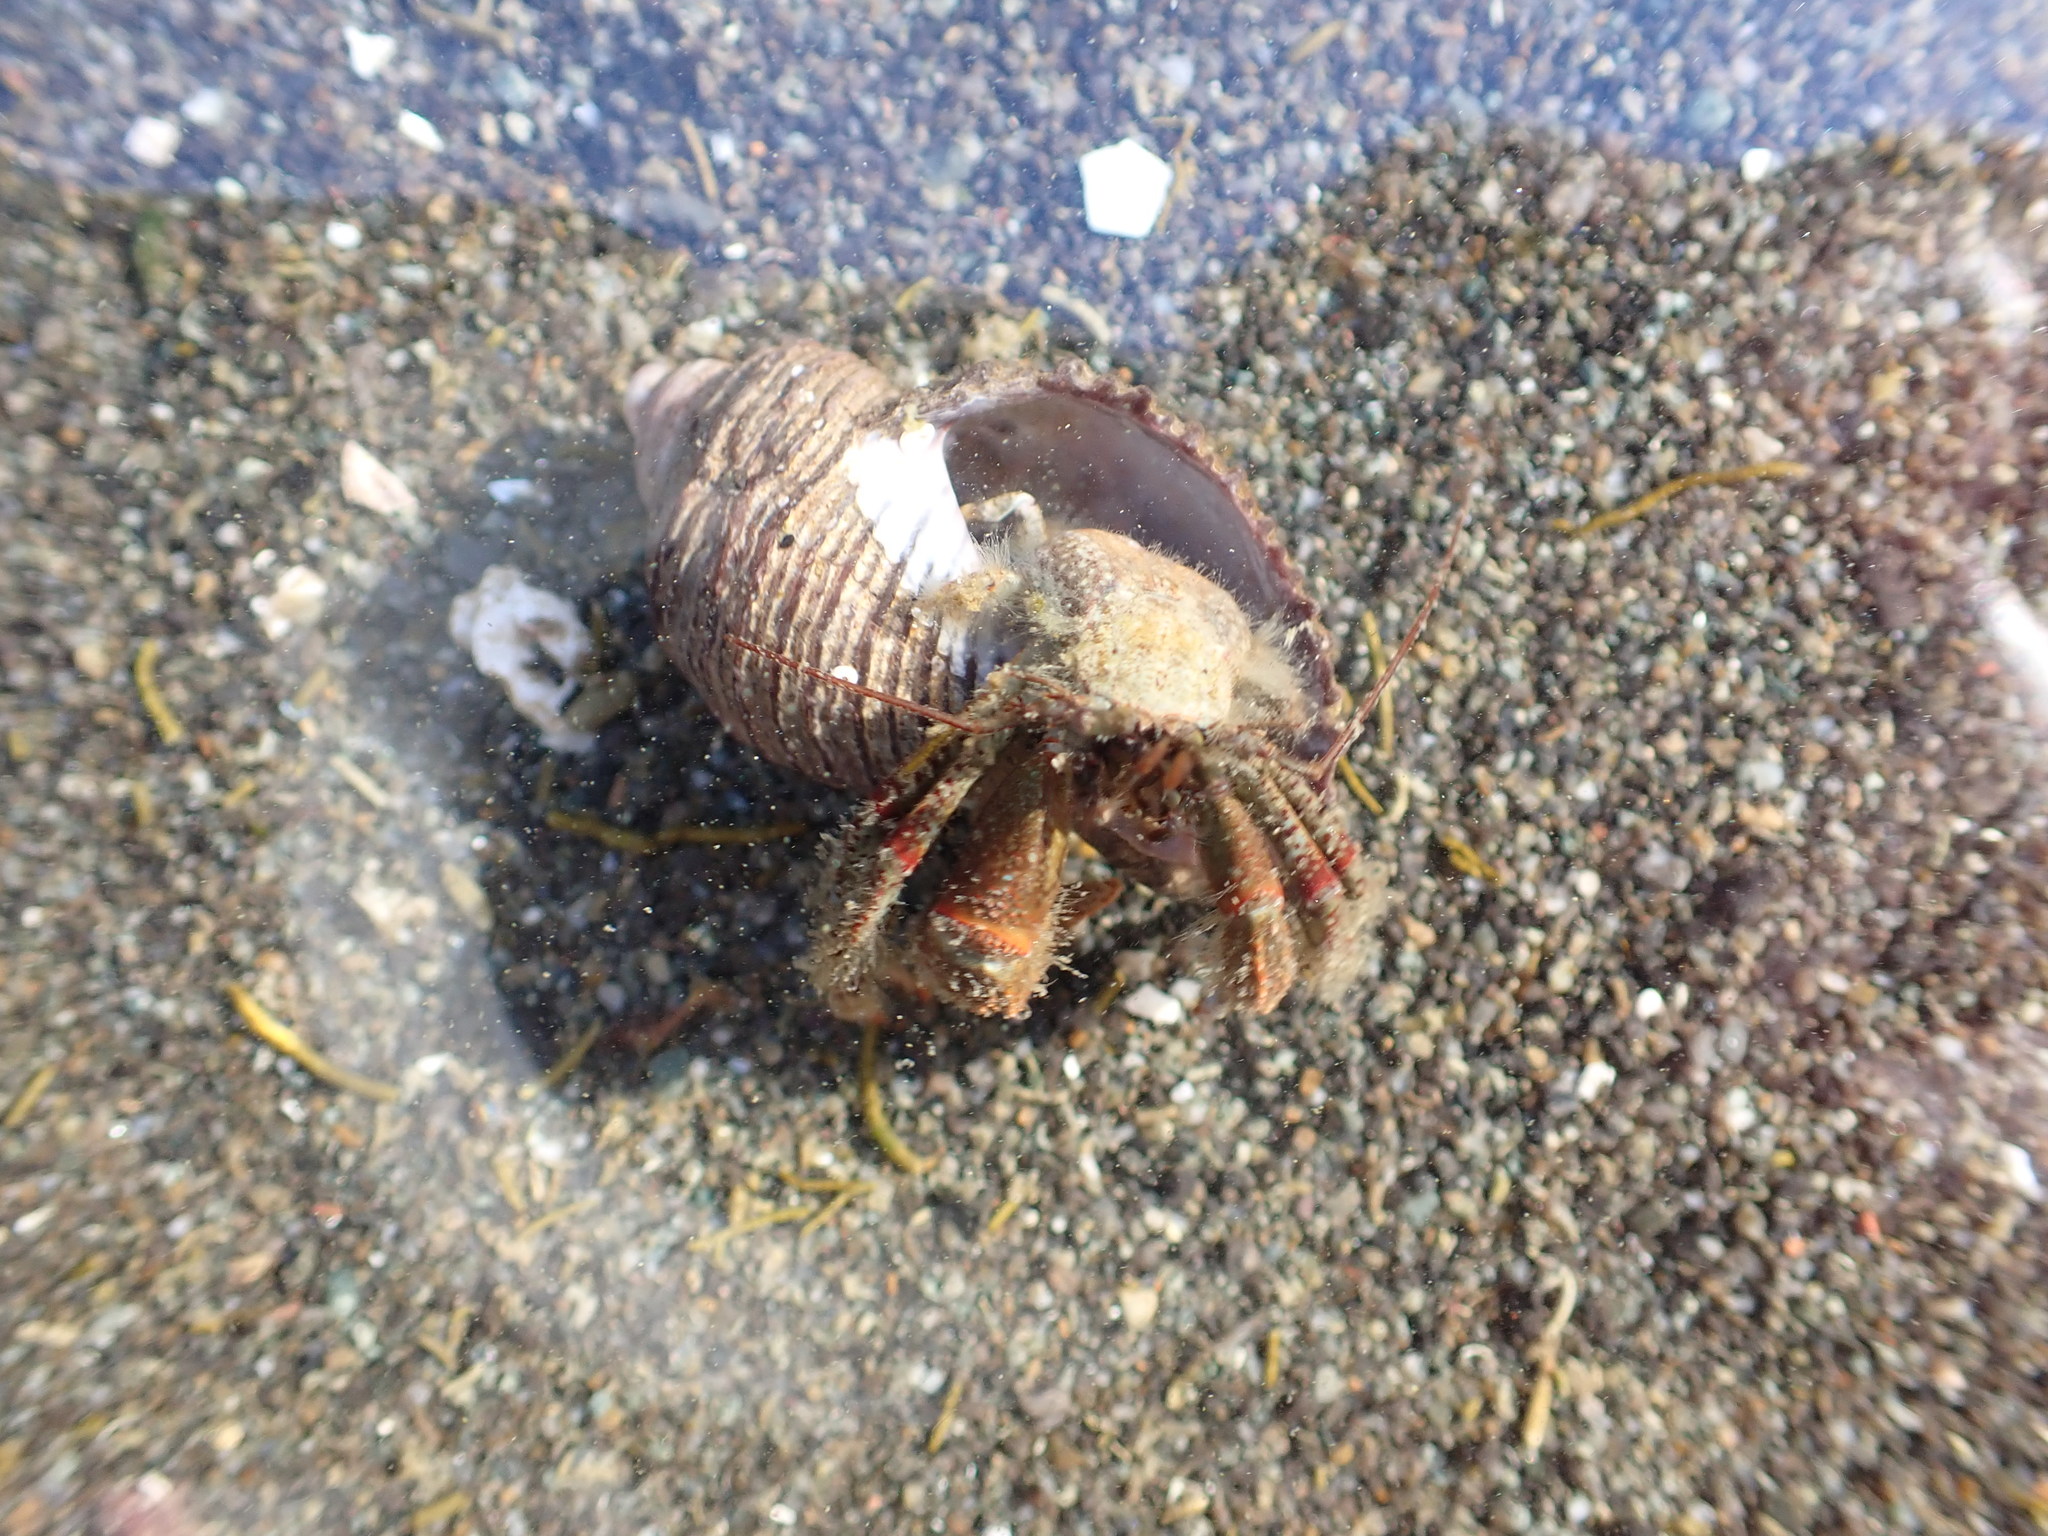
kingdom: Animalia
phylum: Arthropoda
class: Malacostraca
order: Decapoda
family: Paguridae
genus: Pagurus
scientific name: Pagurus beringanus
